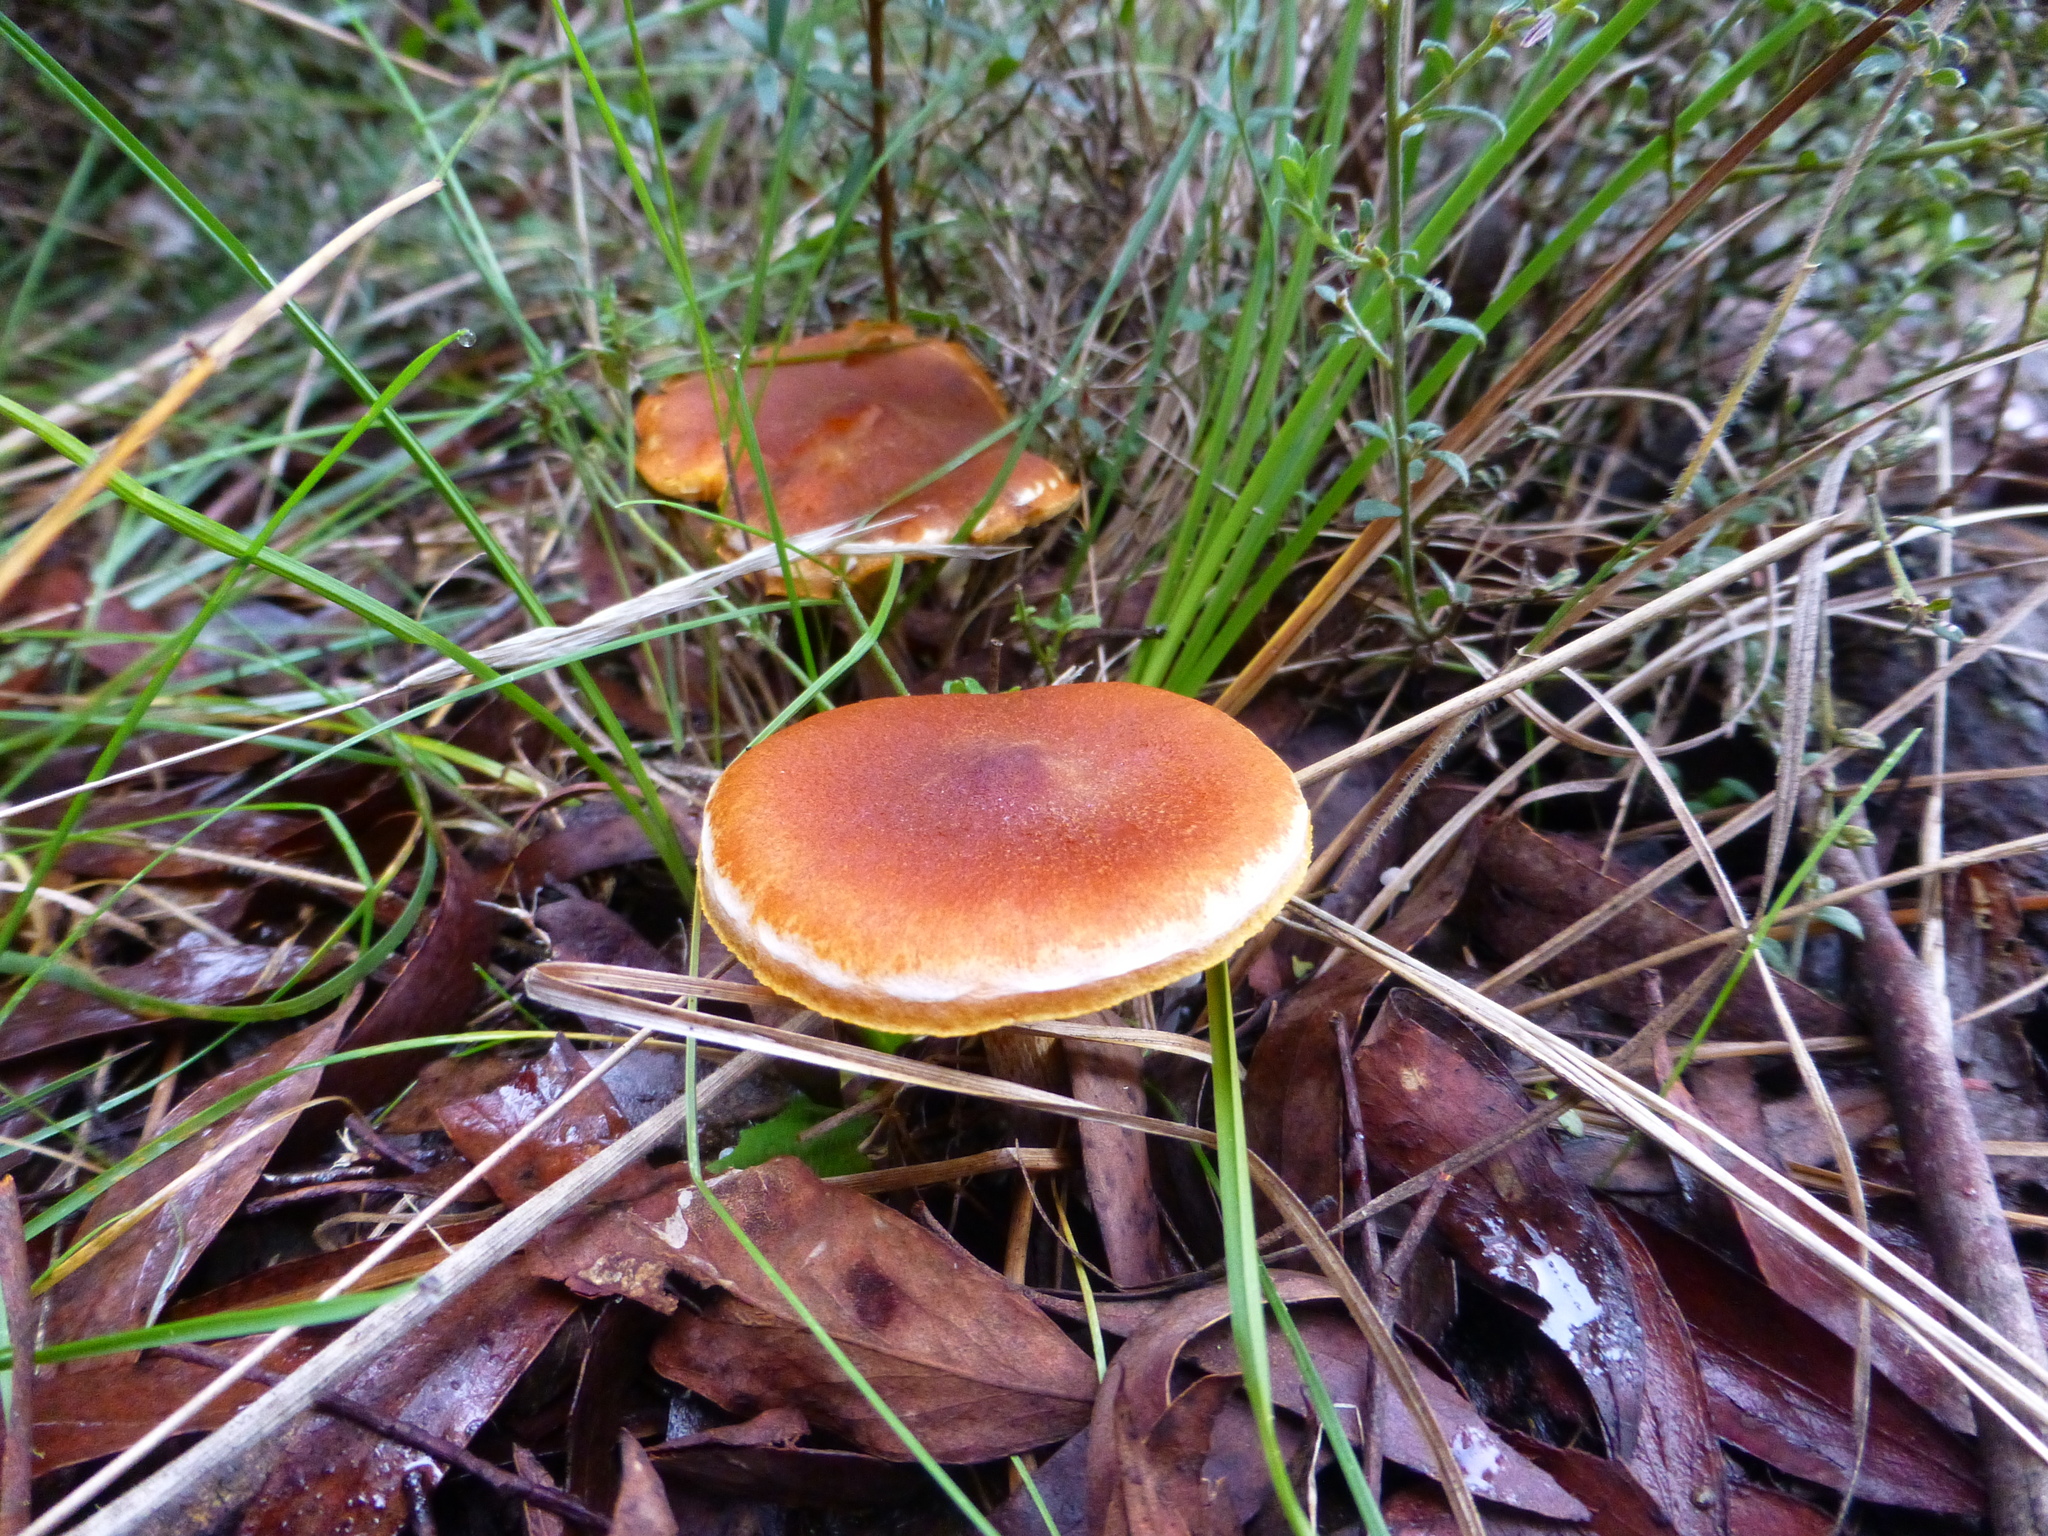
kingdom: Fungi
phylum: Basidiomycota
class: Agaricomycetes
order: Agaricales
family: Hymenogastraceae
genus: Gymnopilus
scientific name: Gymnopilus allantopus
